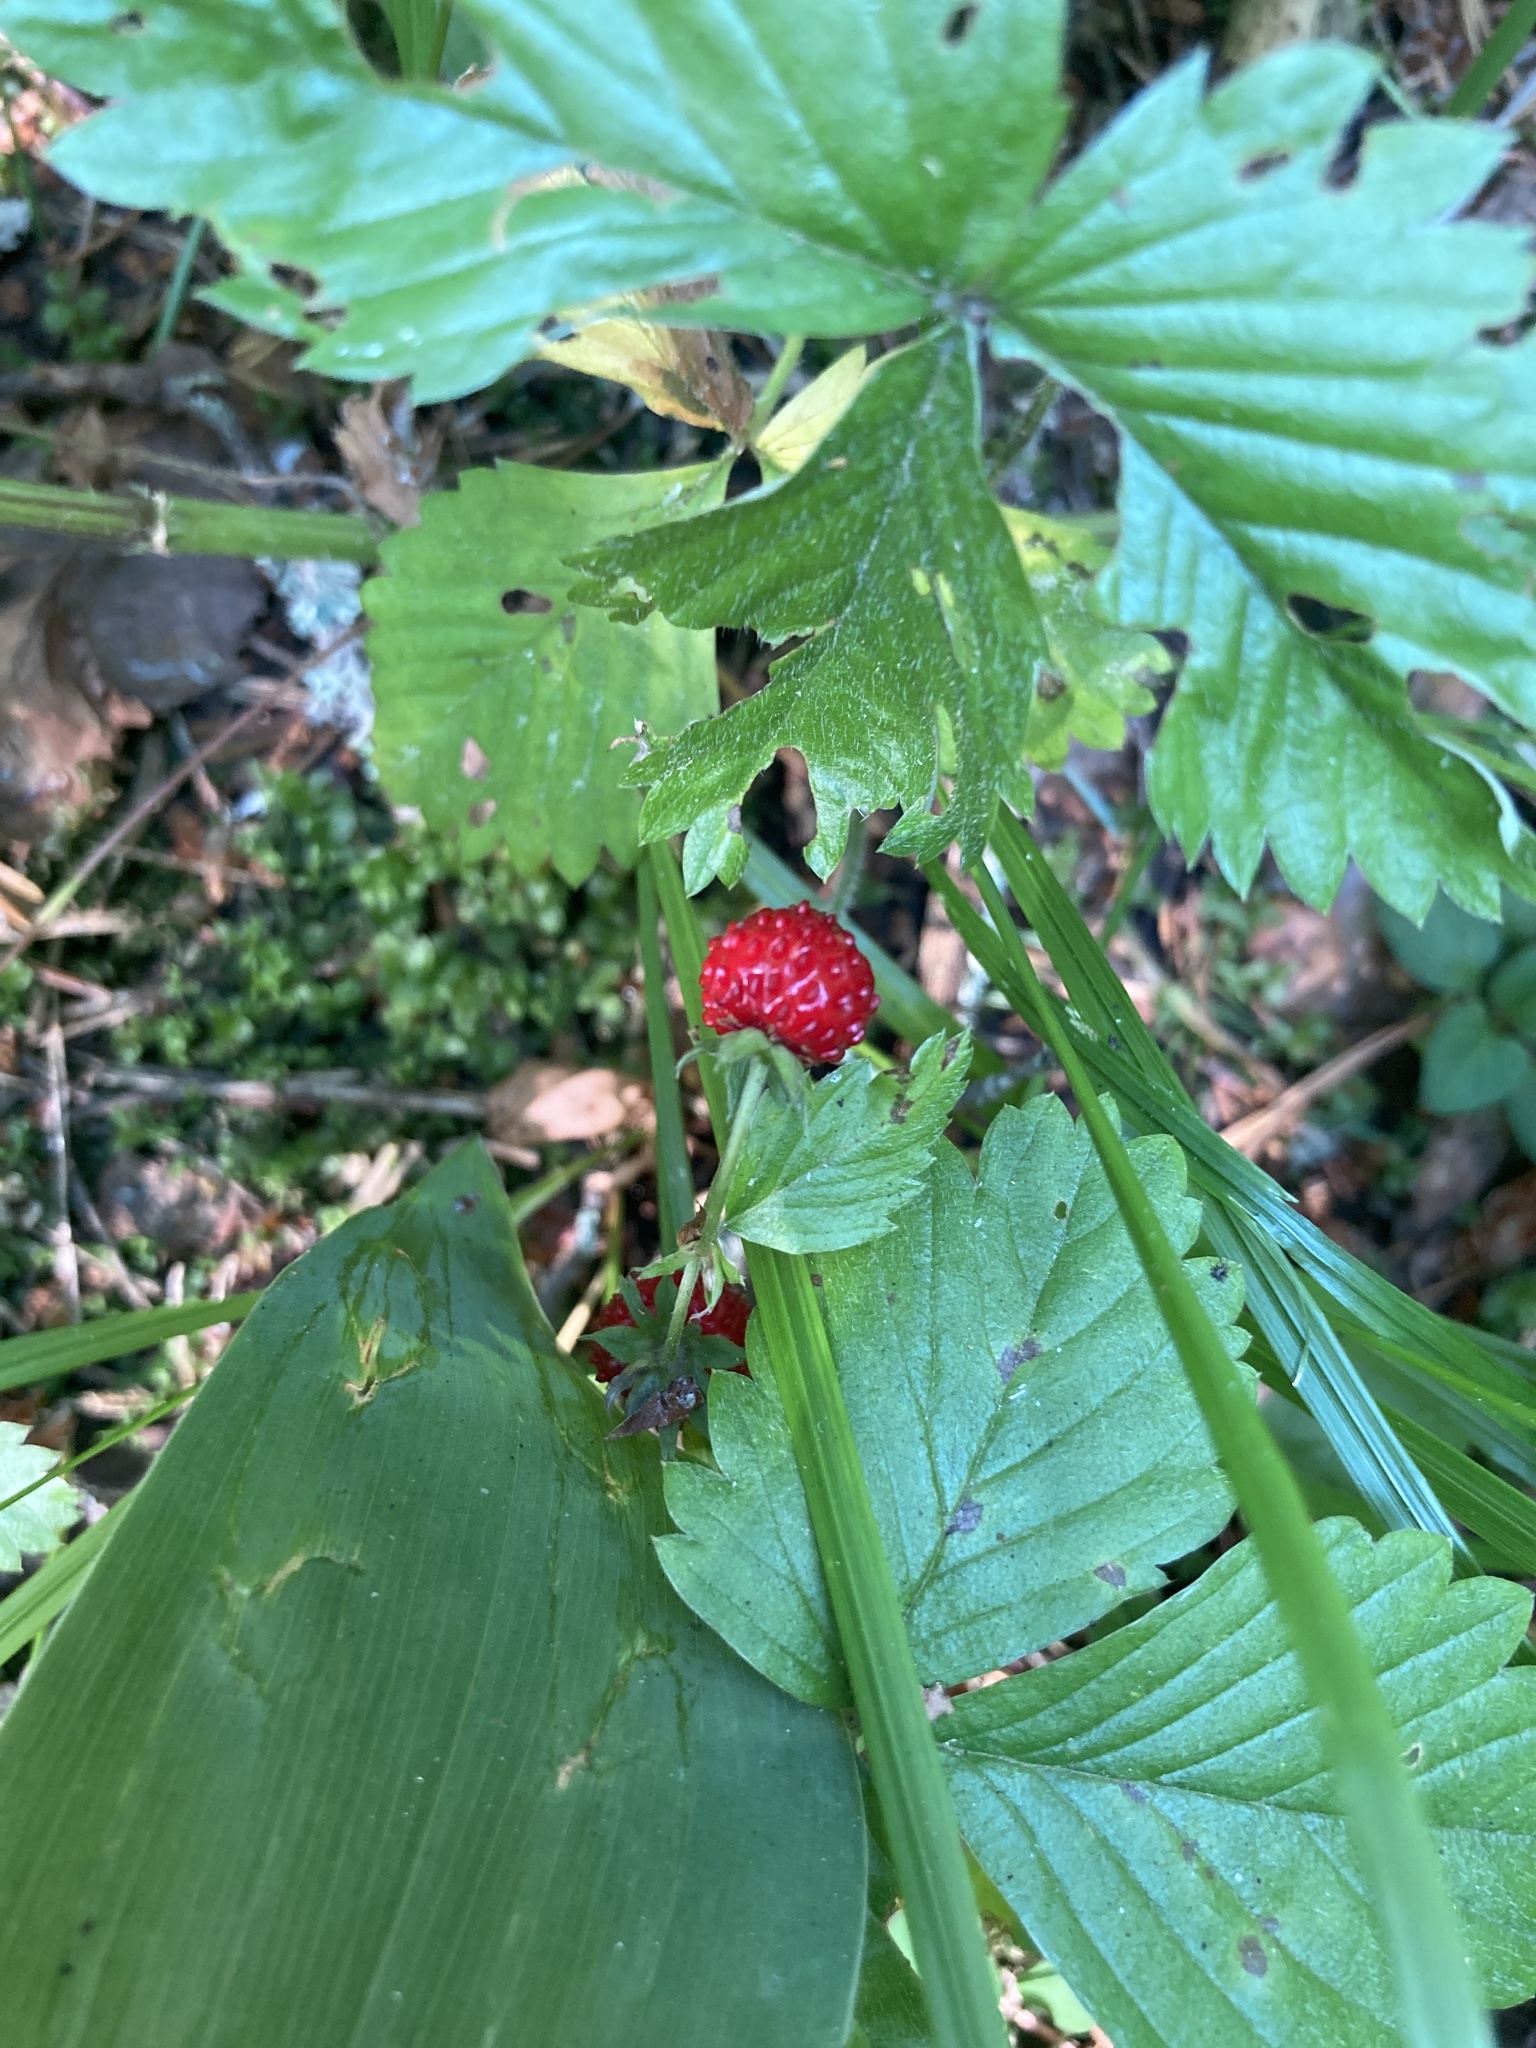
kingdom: Plantae
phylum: Tracheophyta
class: Magnoliopsida
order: Rosales
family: Rosaceae
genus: Fragaria
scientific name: Fragaria vesca
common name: Wild strawberry
